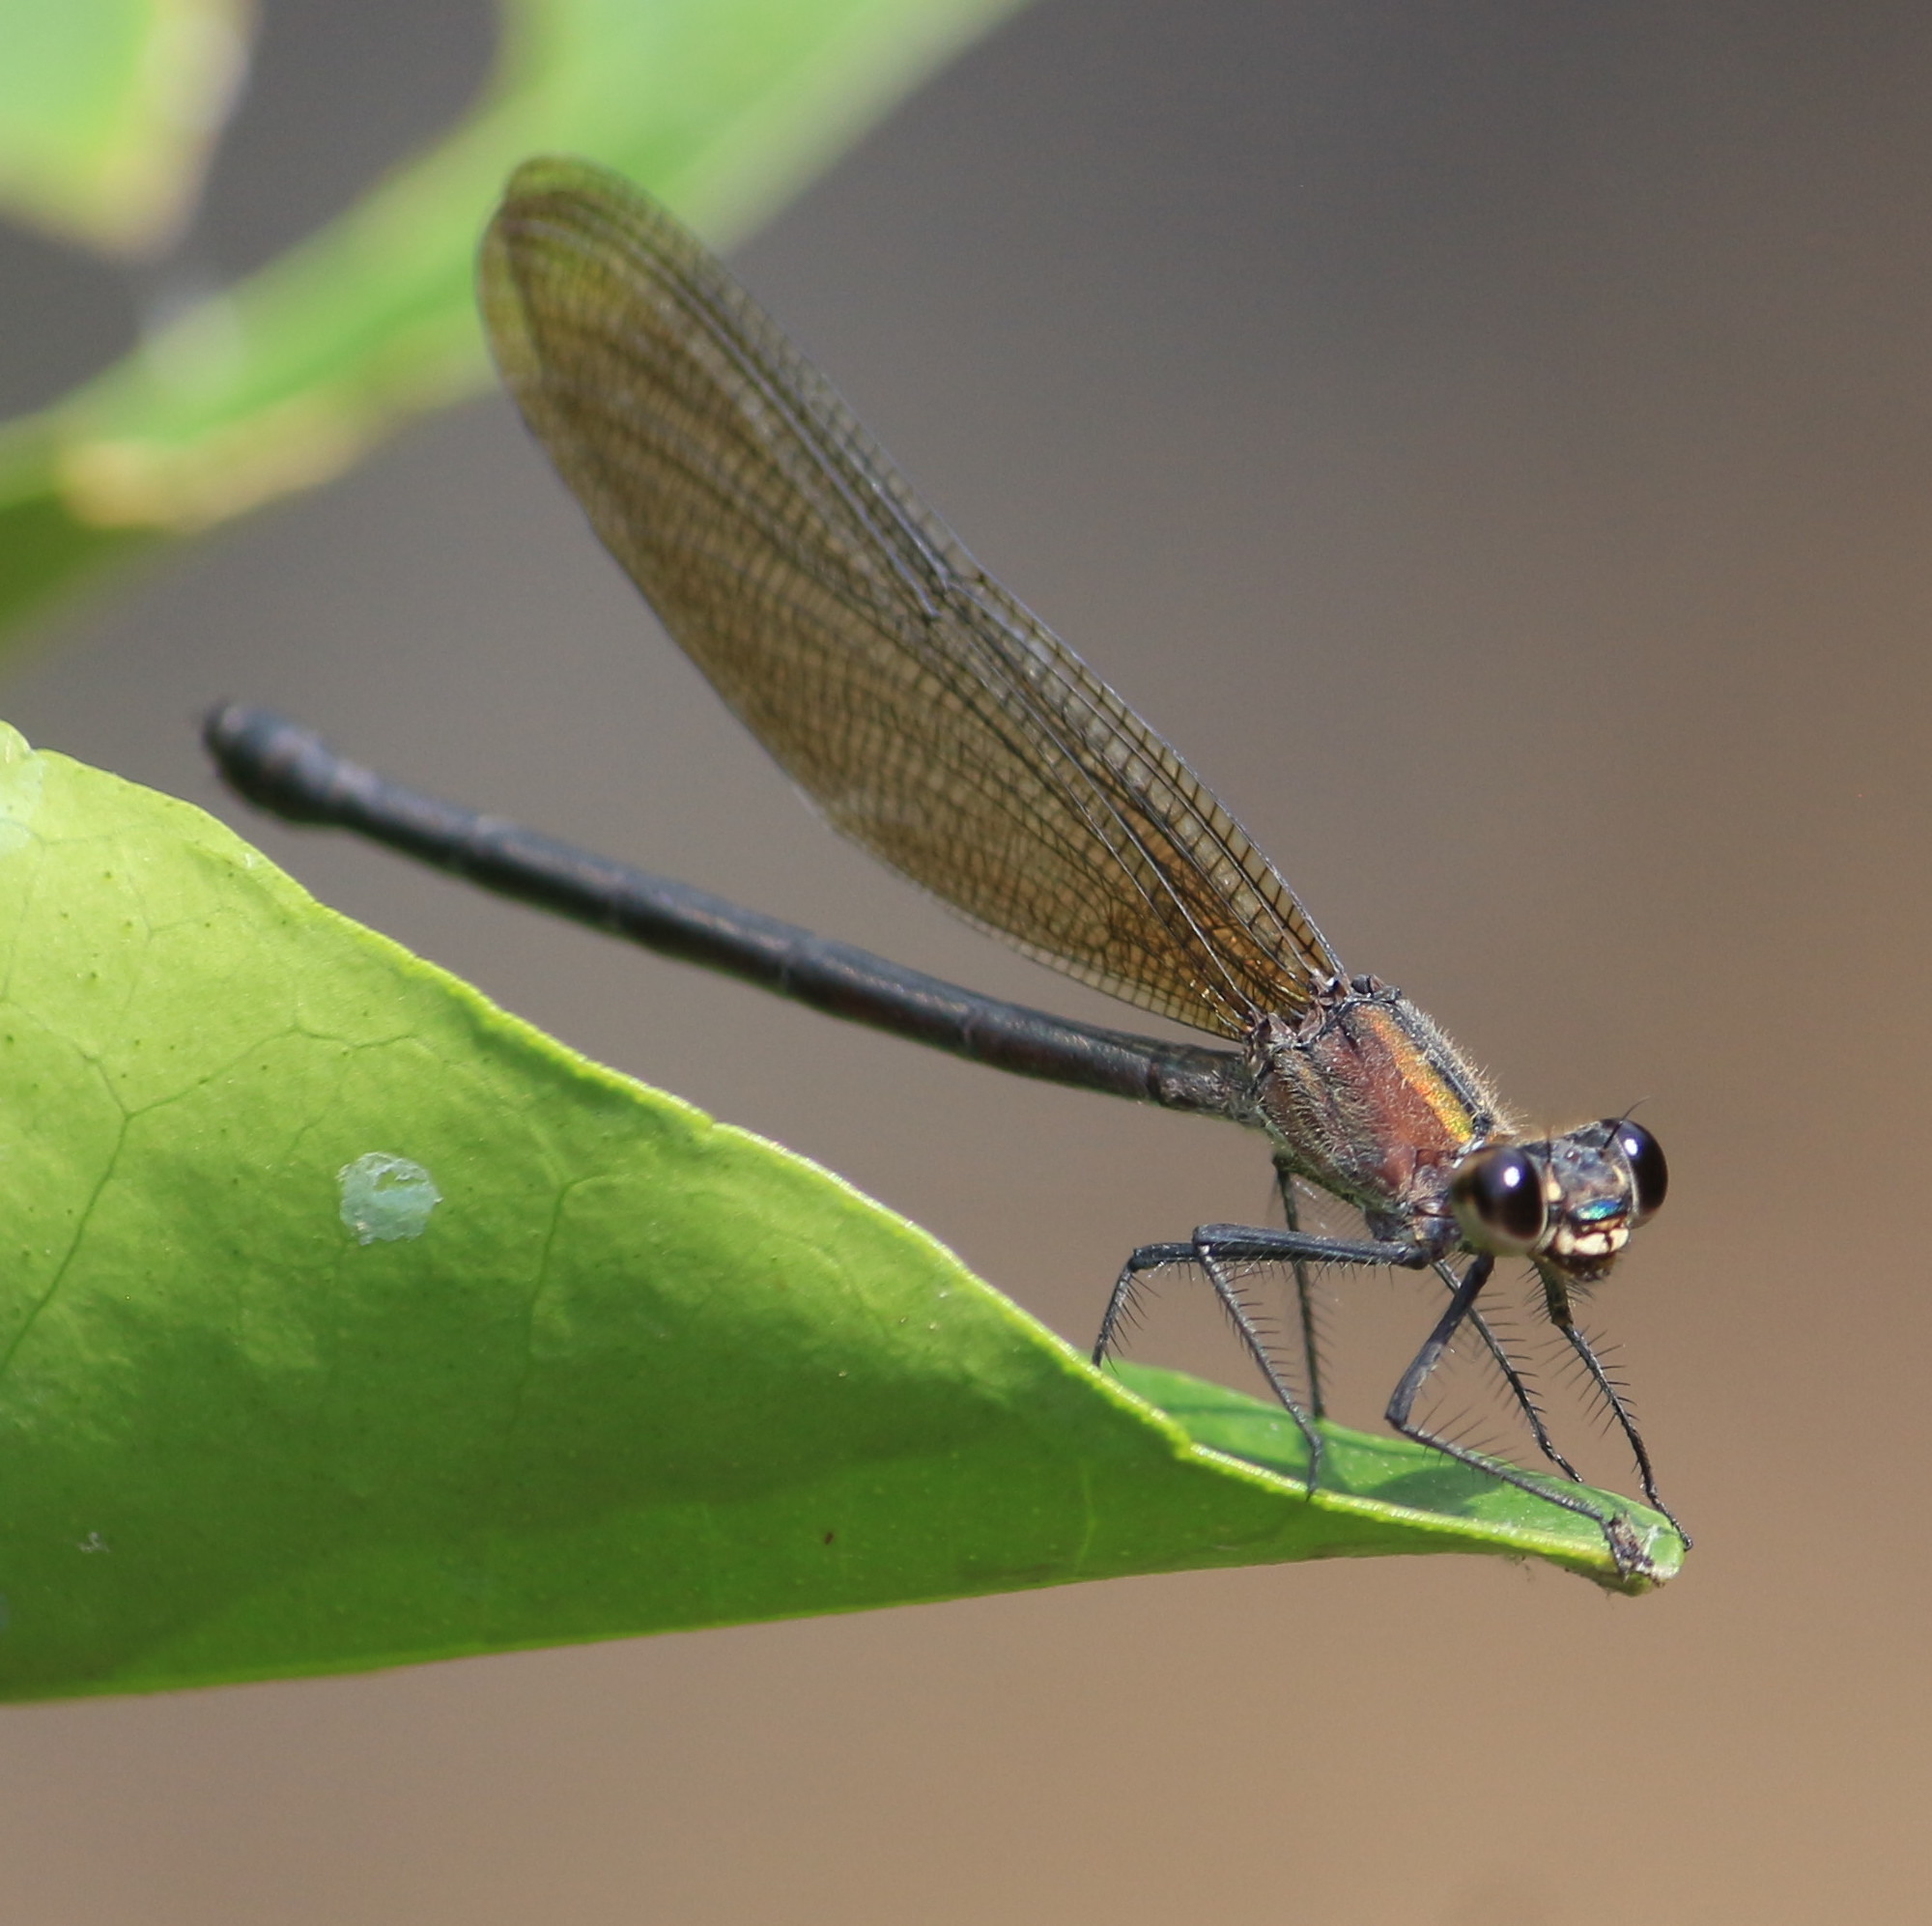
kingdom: Animalia
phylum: Arthropoda
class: Insecta
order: Odonata
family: Calopterygidae
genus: Hetaerina
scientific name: Hetaerina cruentata
